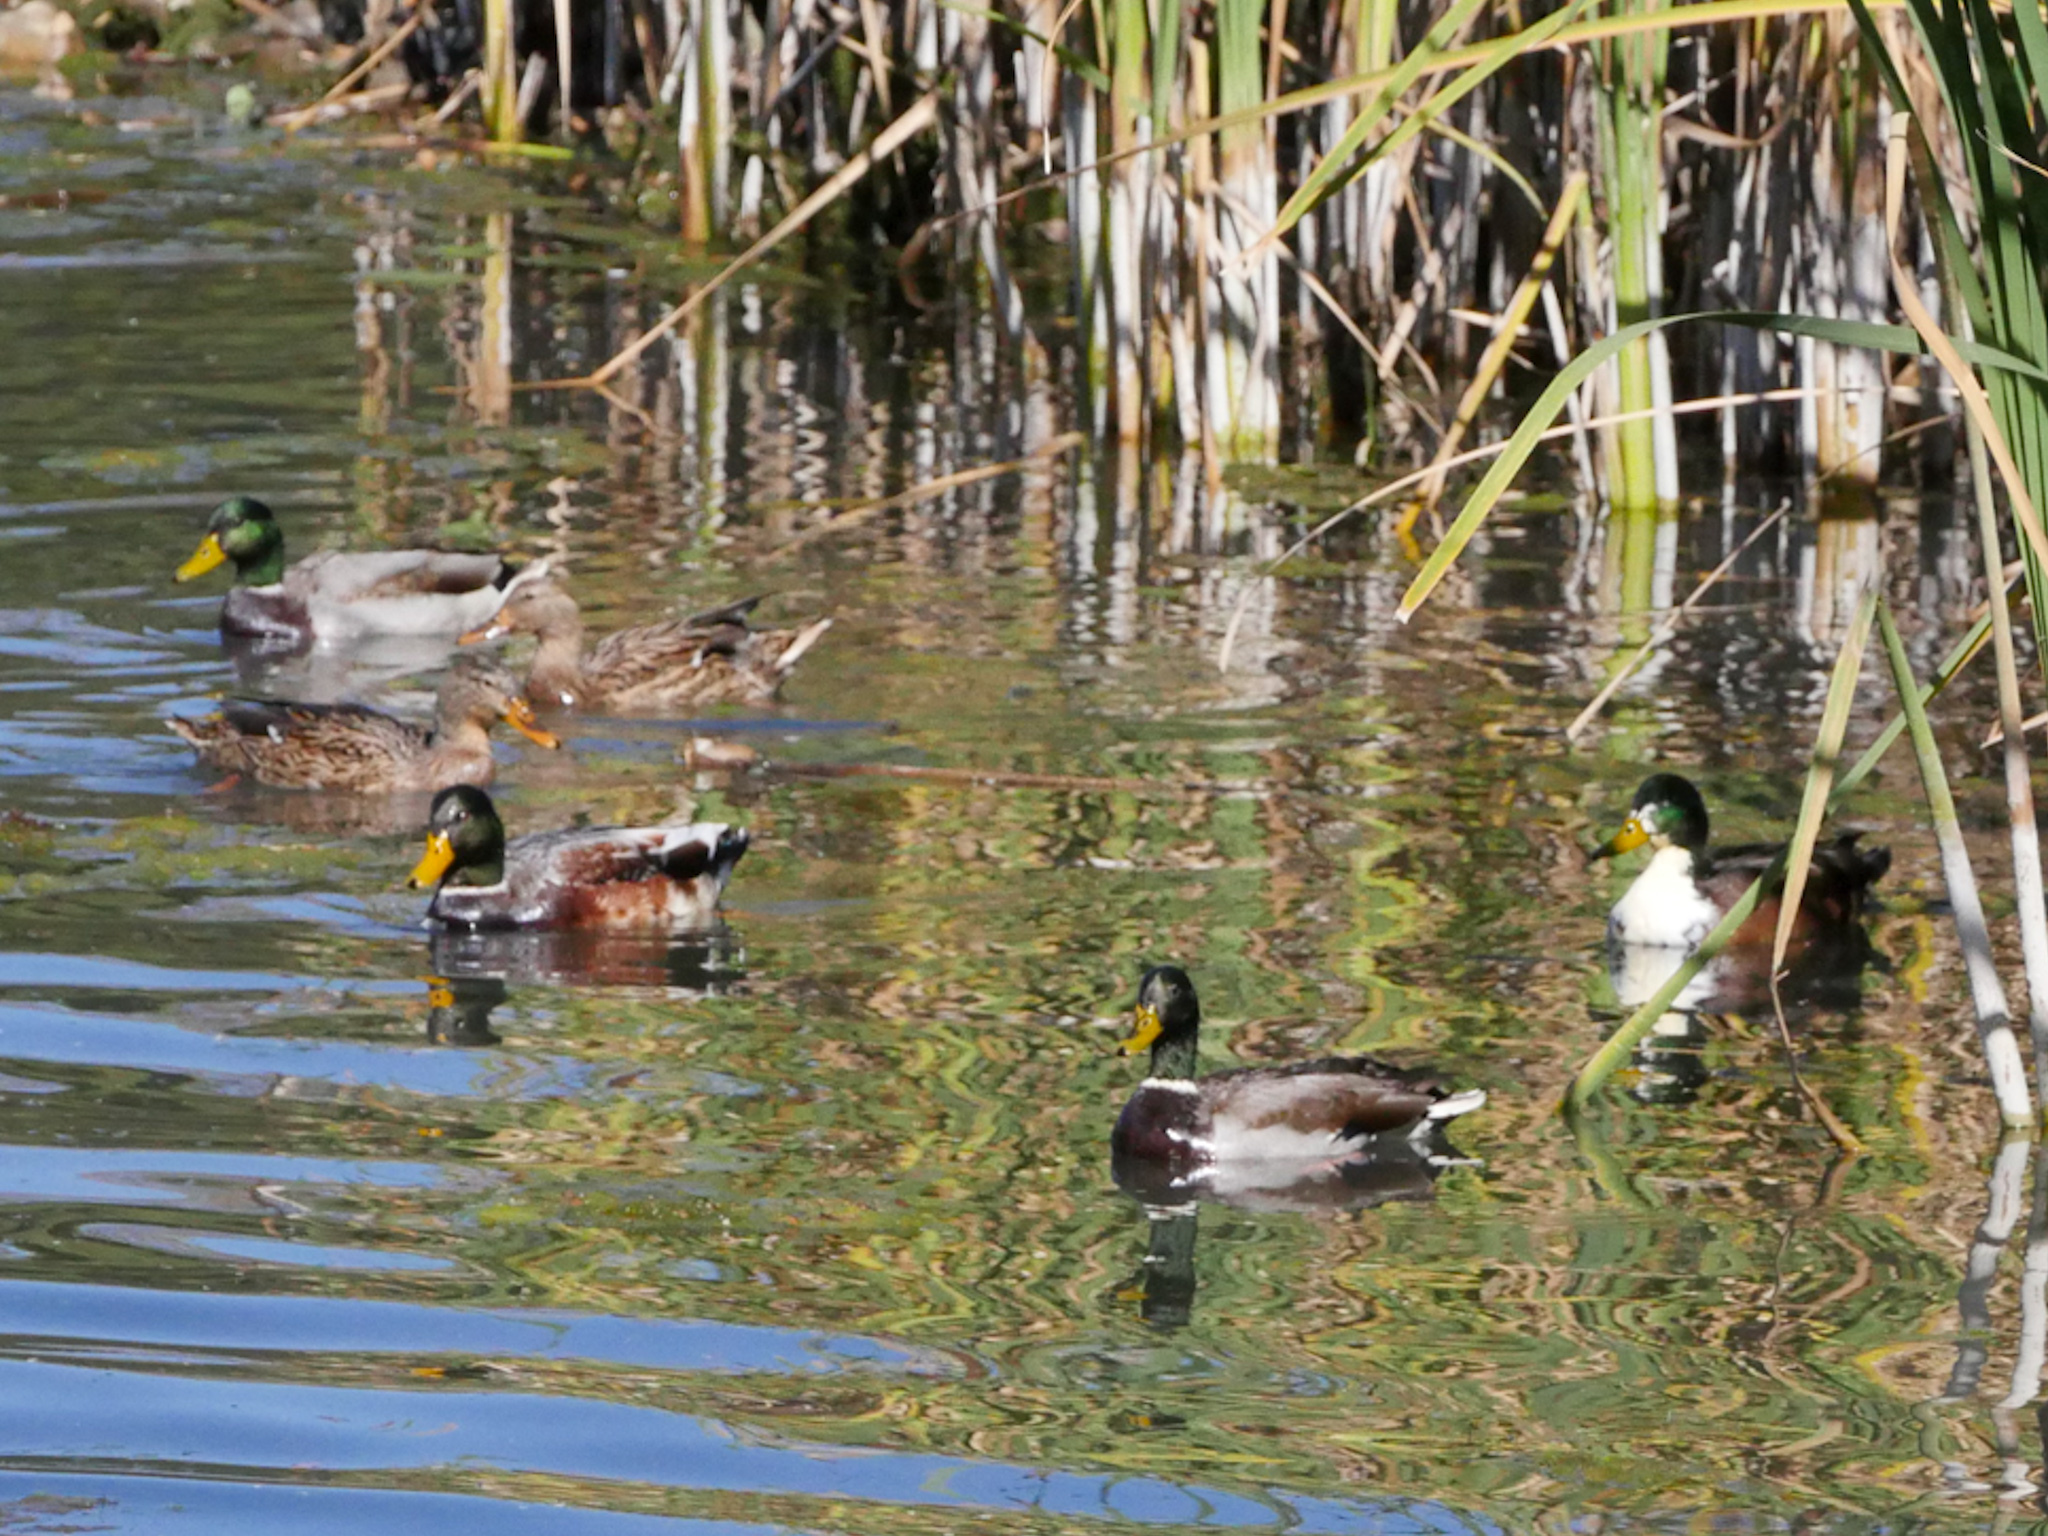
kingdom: Animalia
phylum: Chordata
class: Aves
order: Anseriformes
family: Anatidae
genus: Anas
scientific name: Anas platyrhynchos
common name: Mallard
